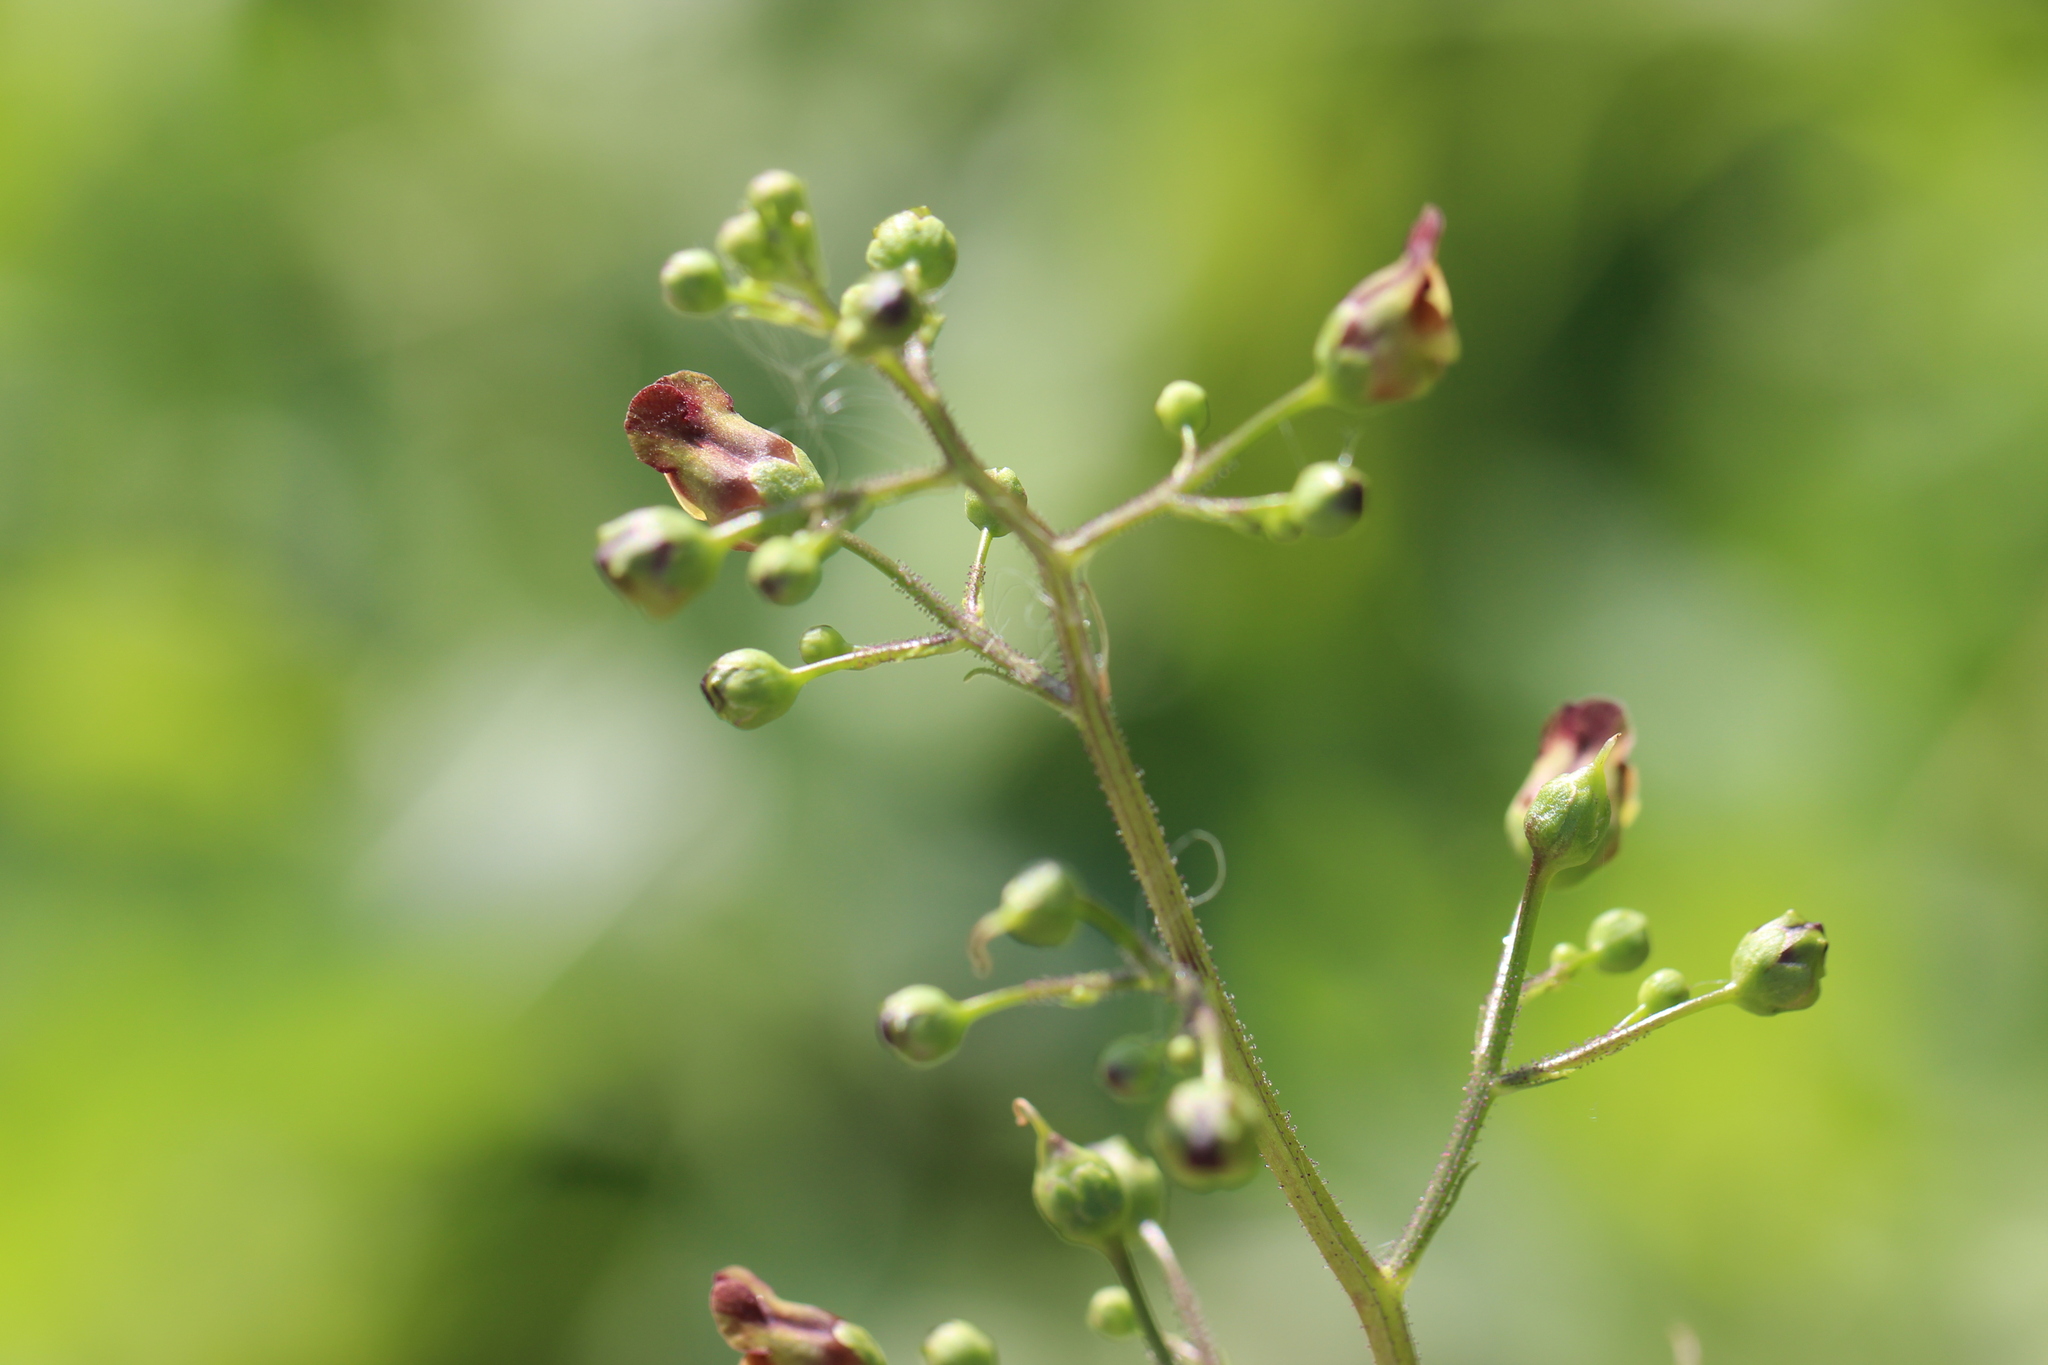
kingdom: Plantae
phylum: Tracheophyta
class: Magnoliopsida
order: Lamiales
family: Scrophulariaceae
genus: Scrophularia
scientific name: Scrophularia nodosa
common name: Common figwort
